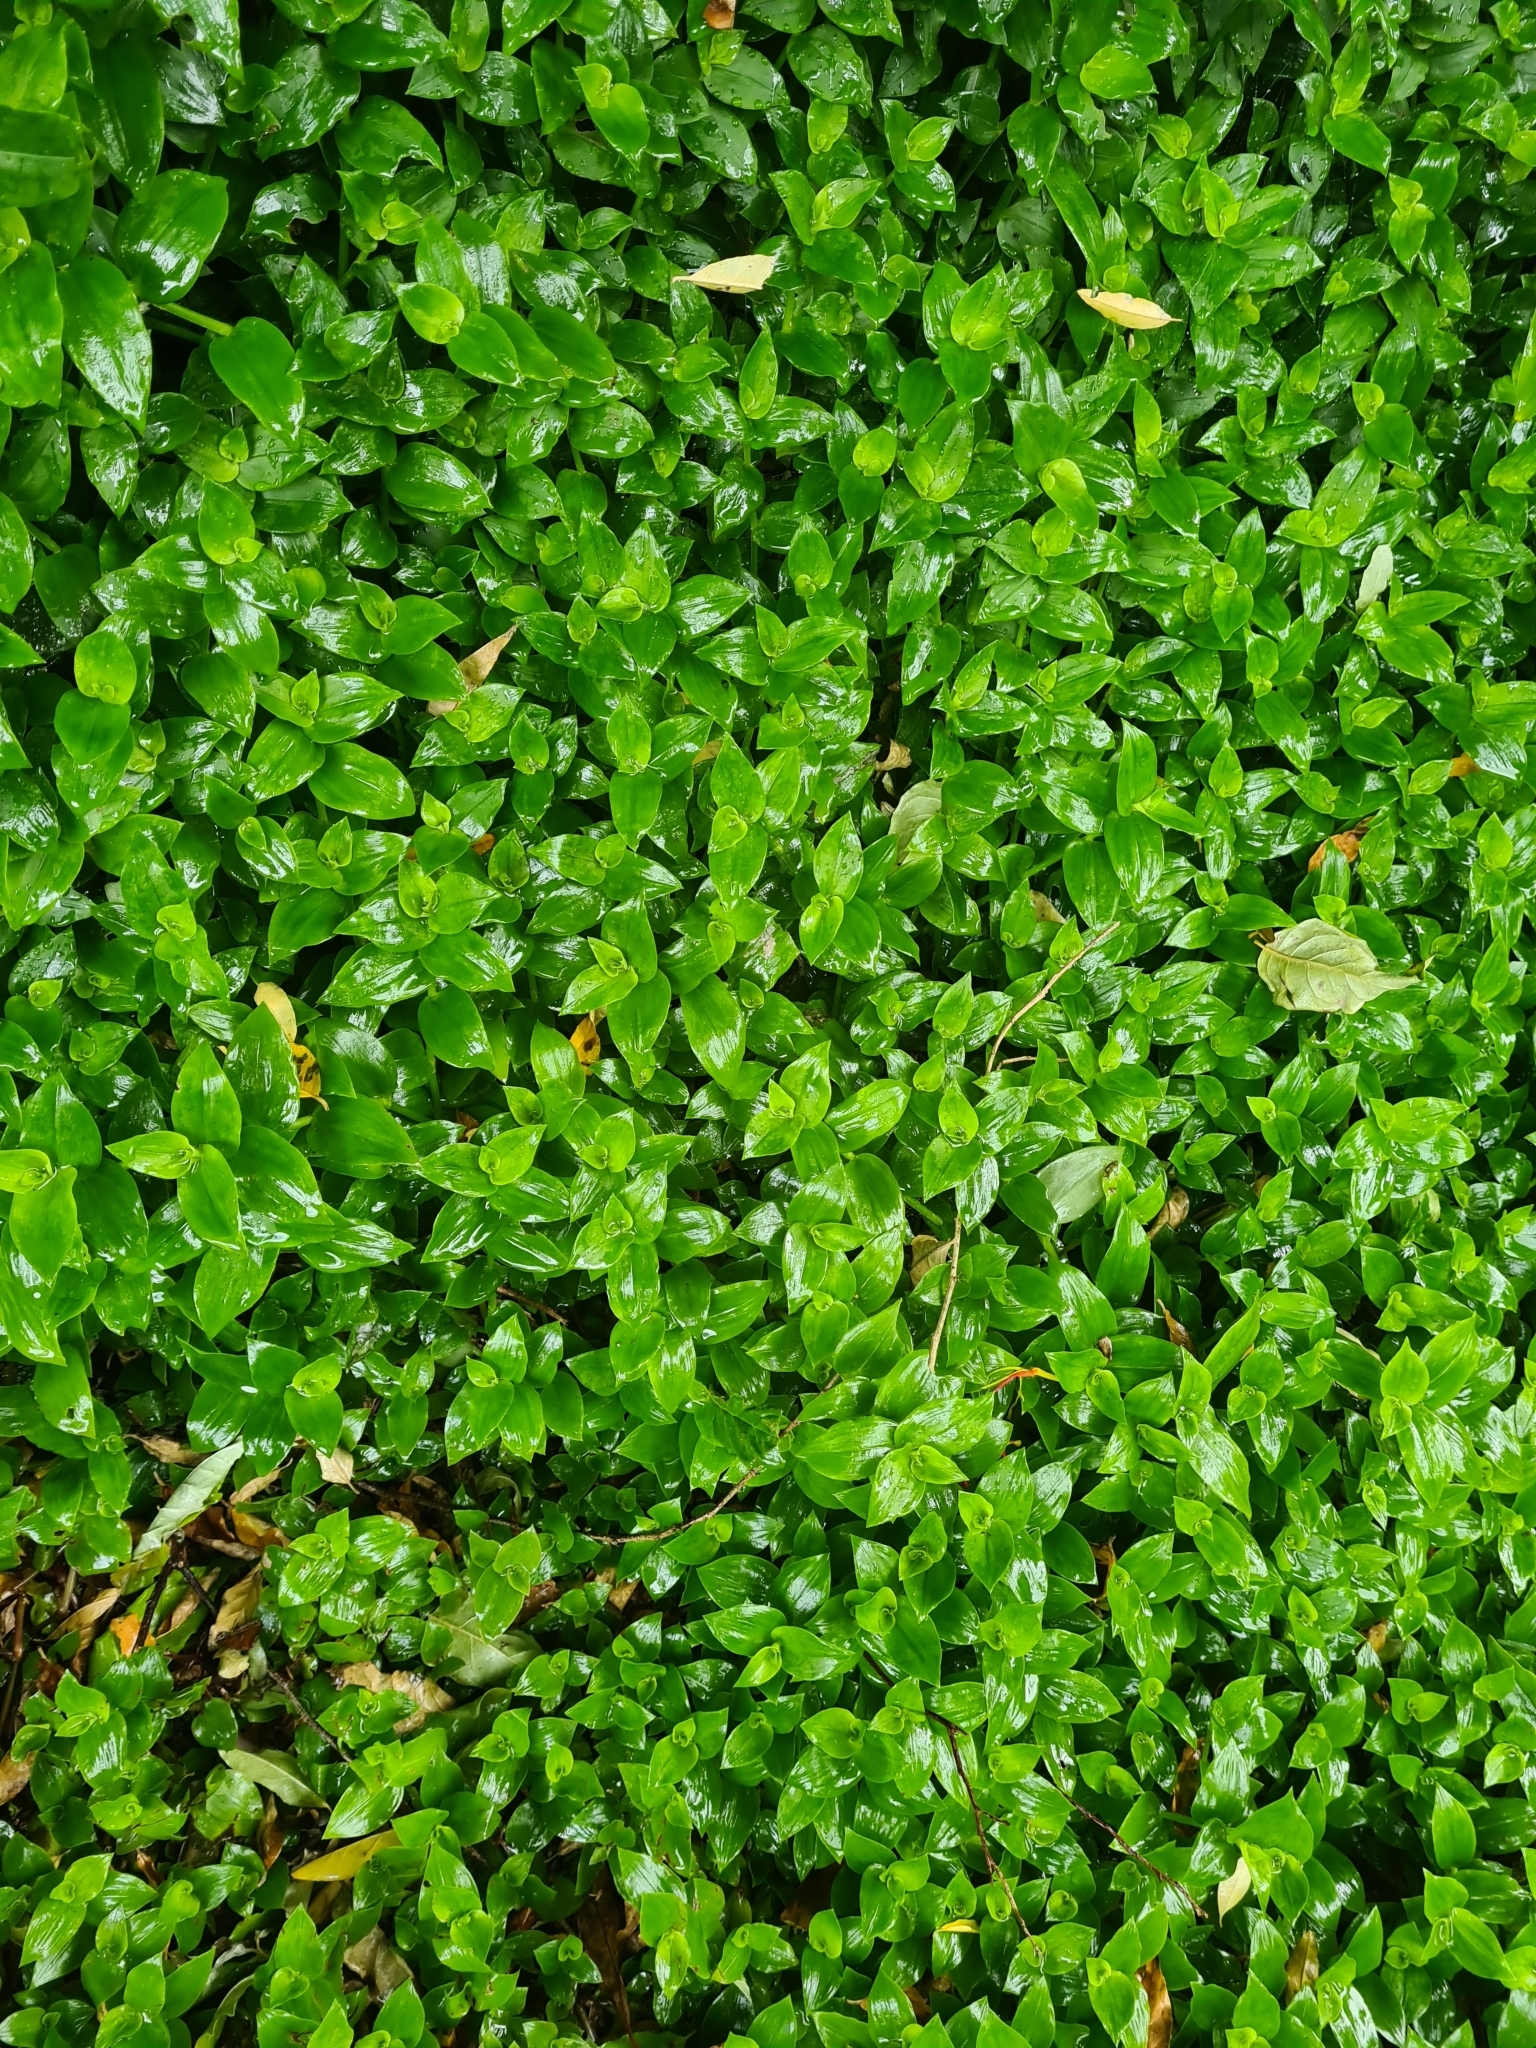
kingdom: Plantae
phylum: Tracheophyta
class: Liliopsida
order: Commelinales
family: Commelinaceae
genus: Tradescantia
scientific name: Tradescantia fluminensis
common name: Wandering-jew
